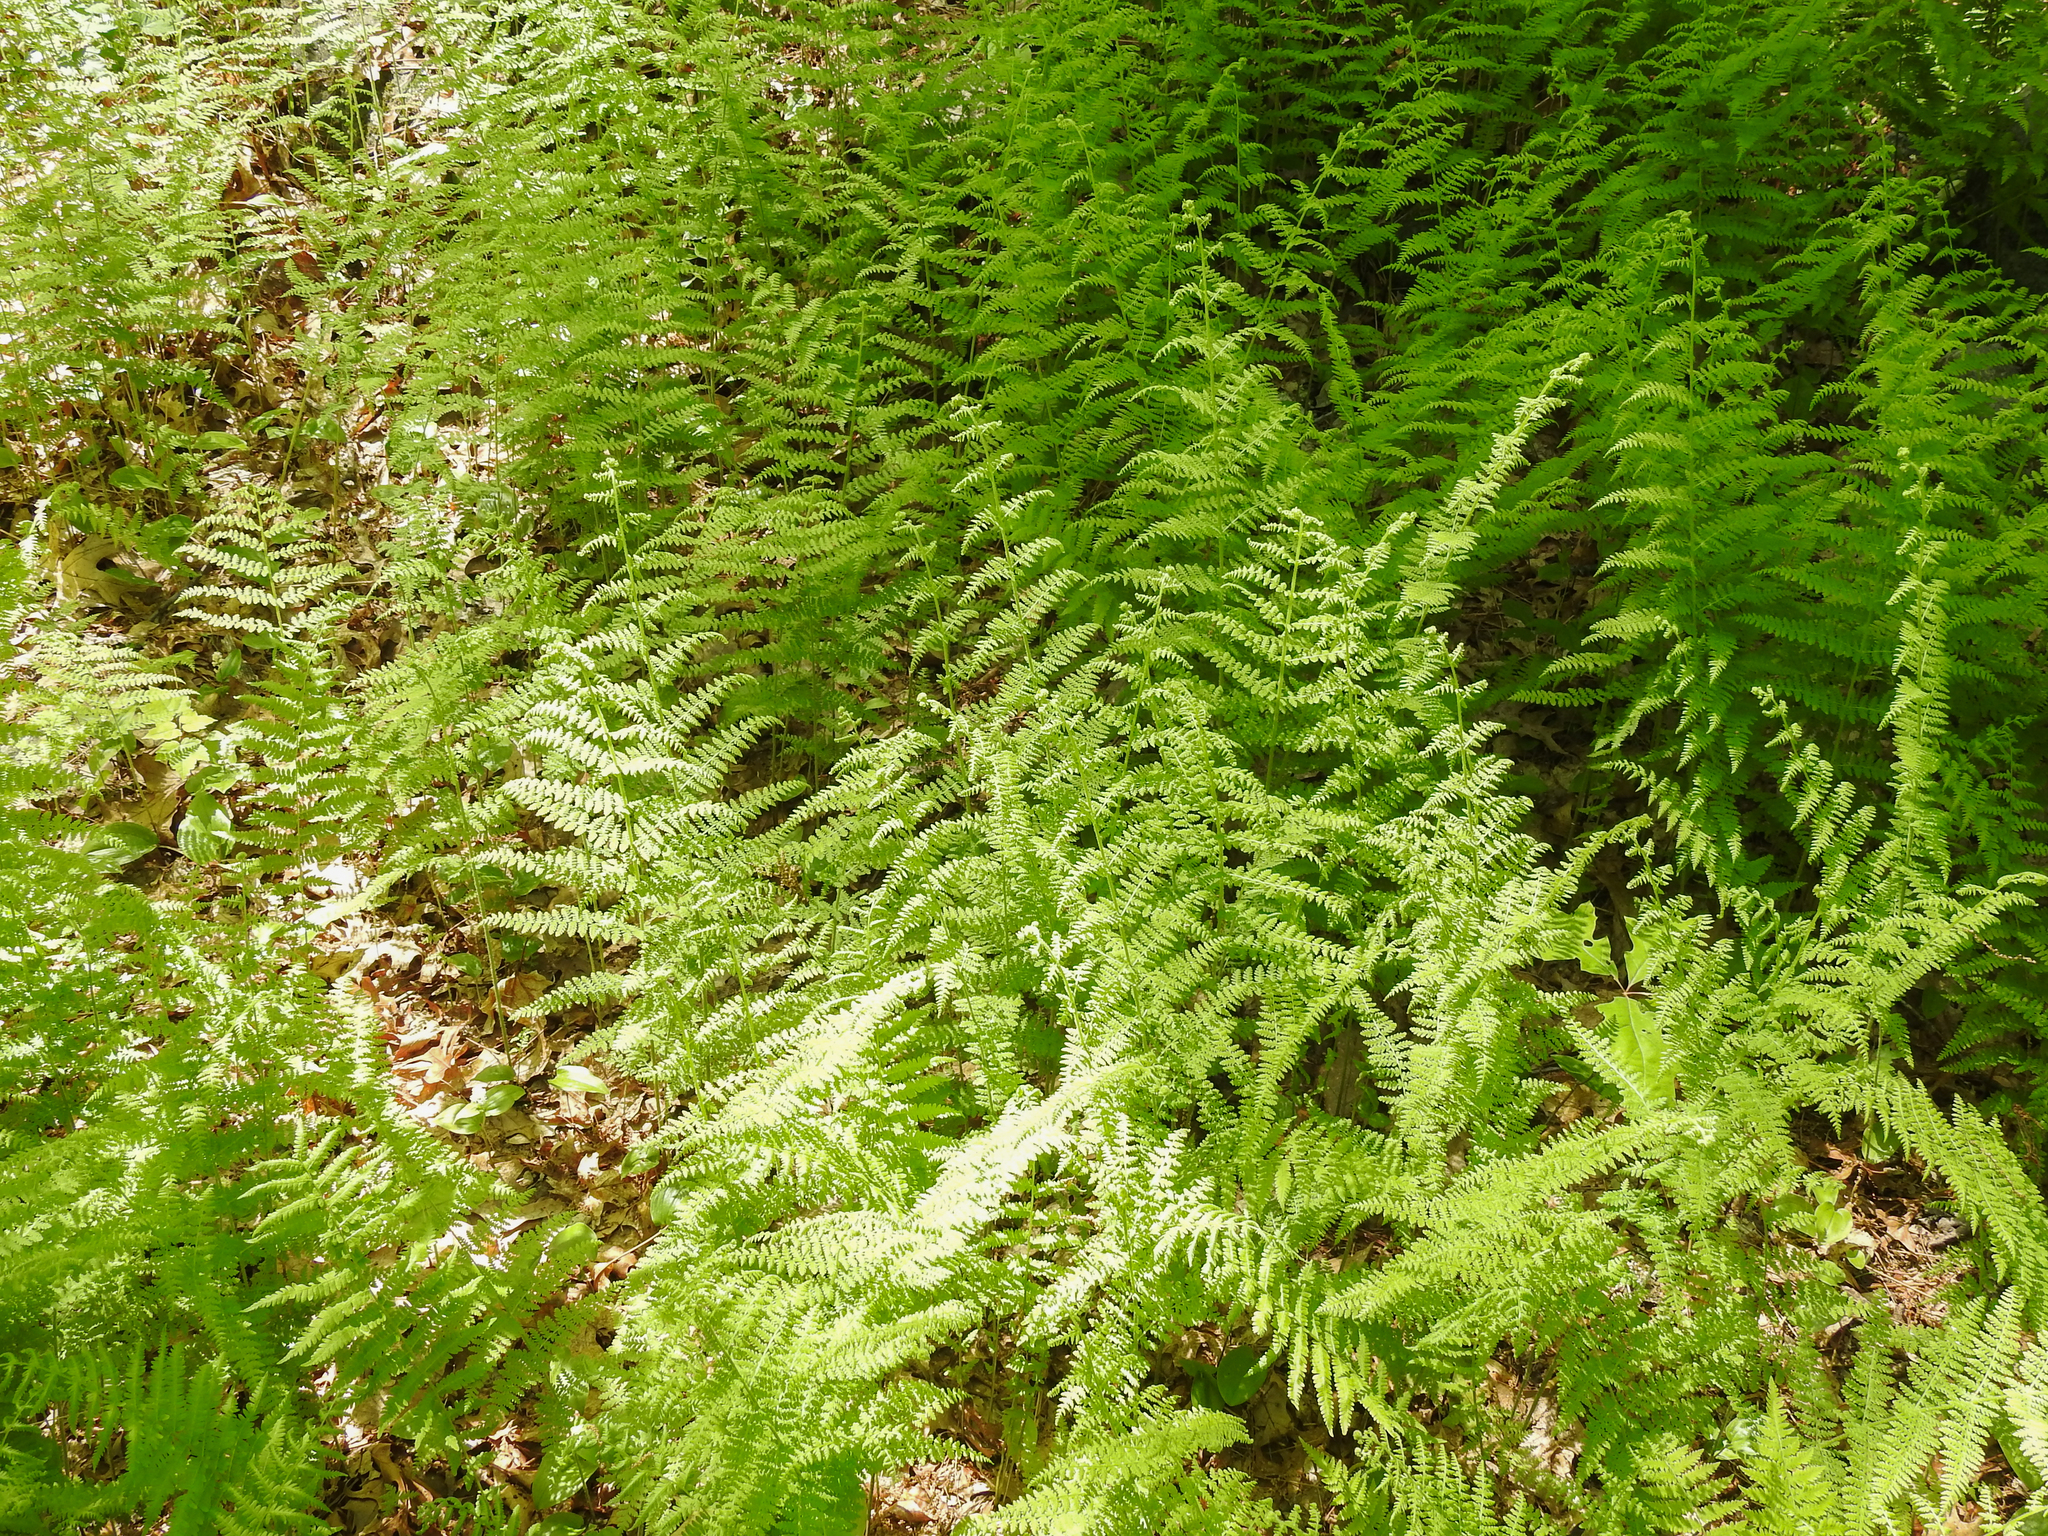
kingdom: Plantae
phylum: Tracheophyta
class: Polypodiopsida
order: Polypodiales
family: Dennstaedtiaceae
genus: Sitobolium
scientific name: Sitobolium punctilobum
